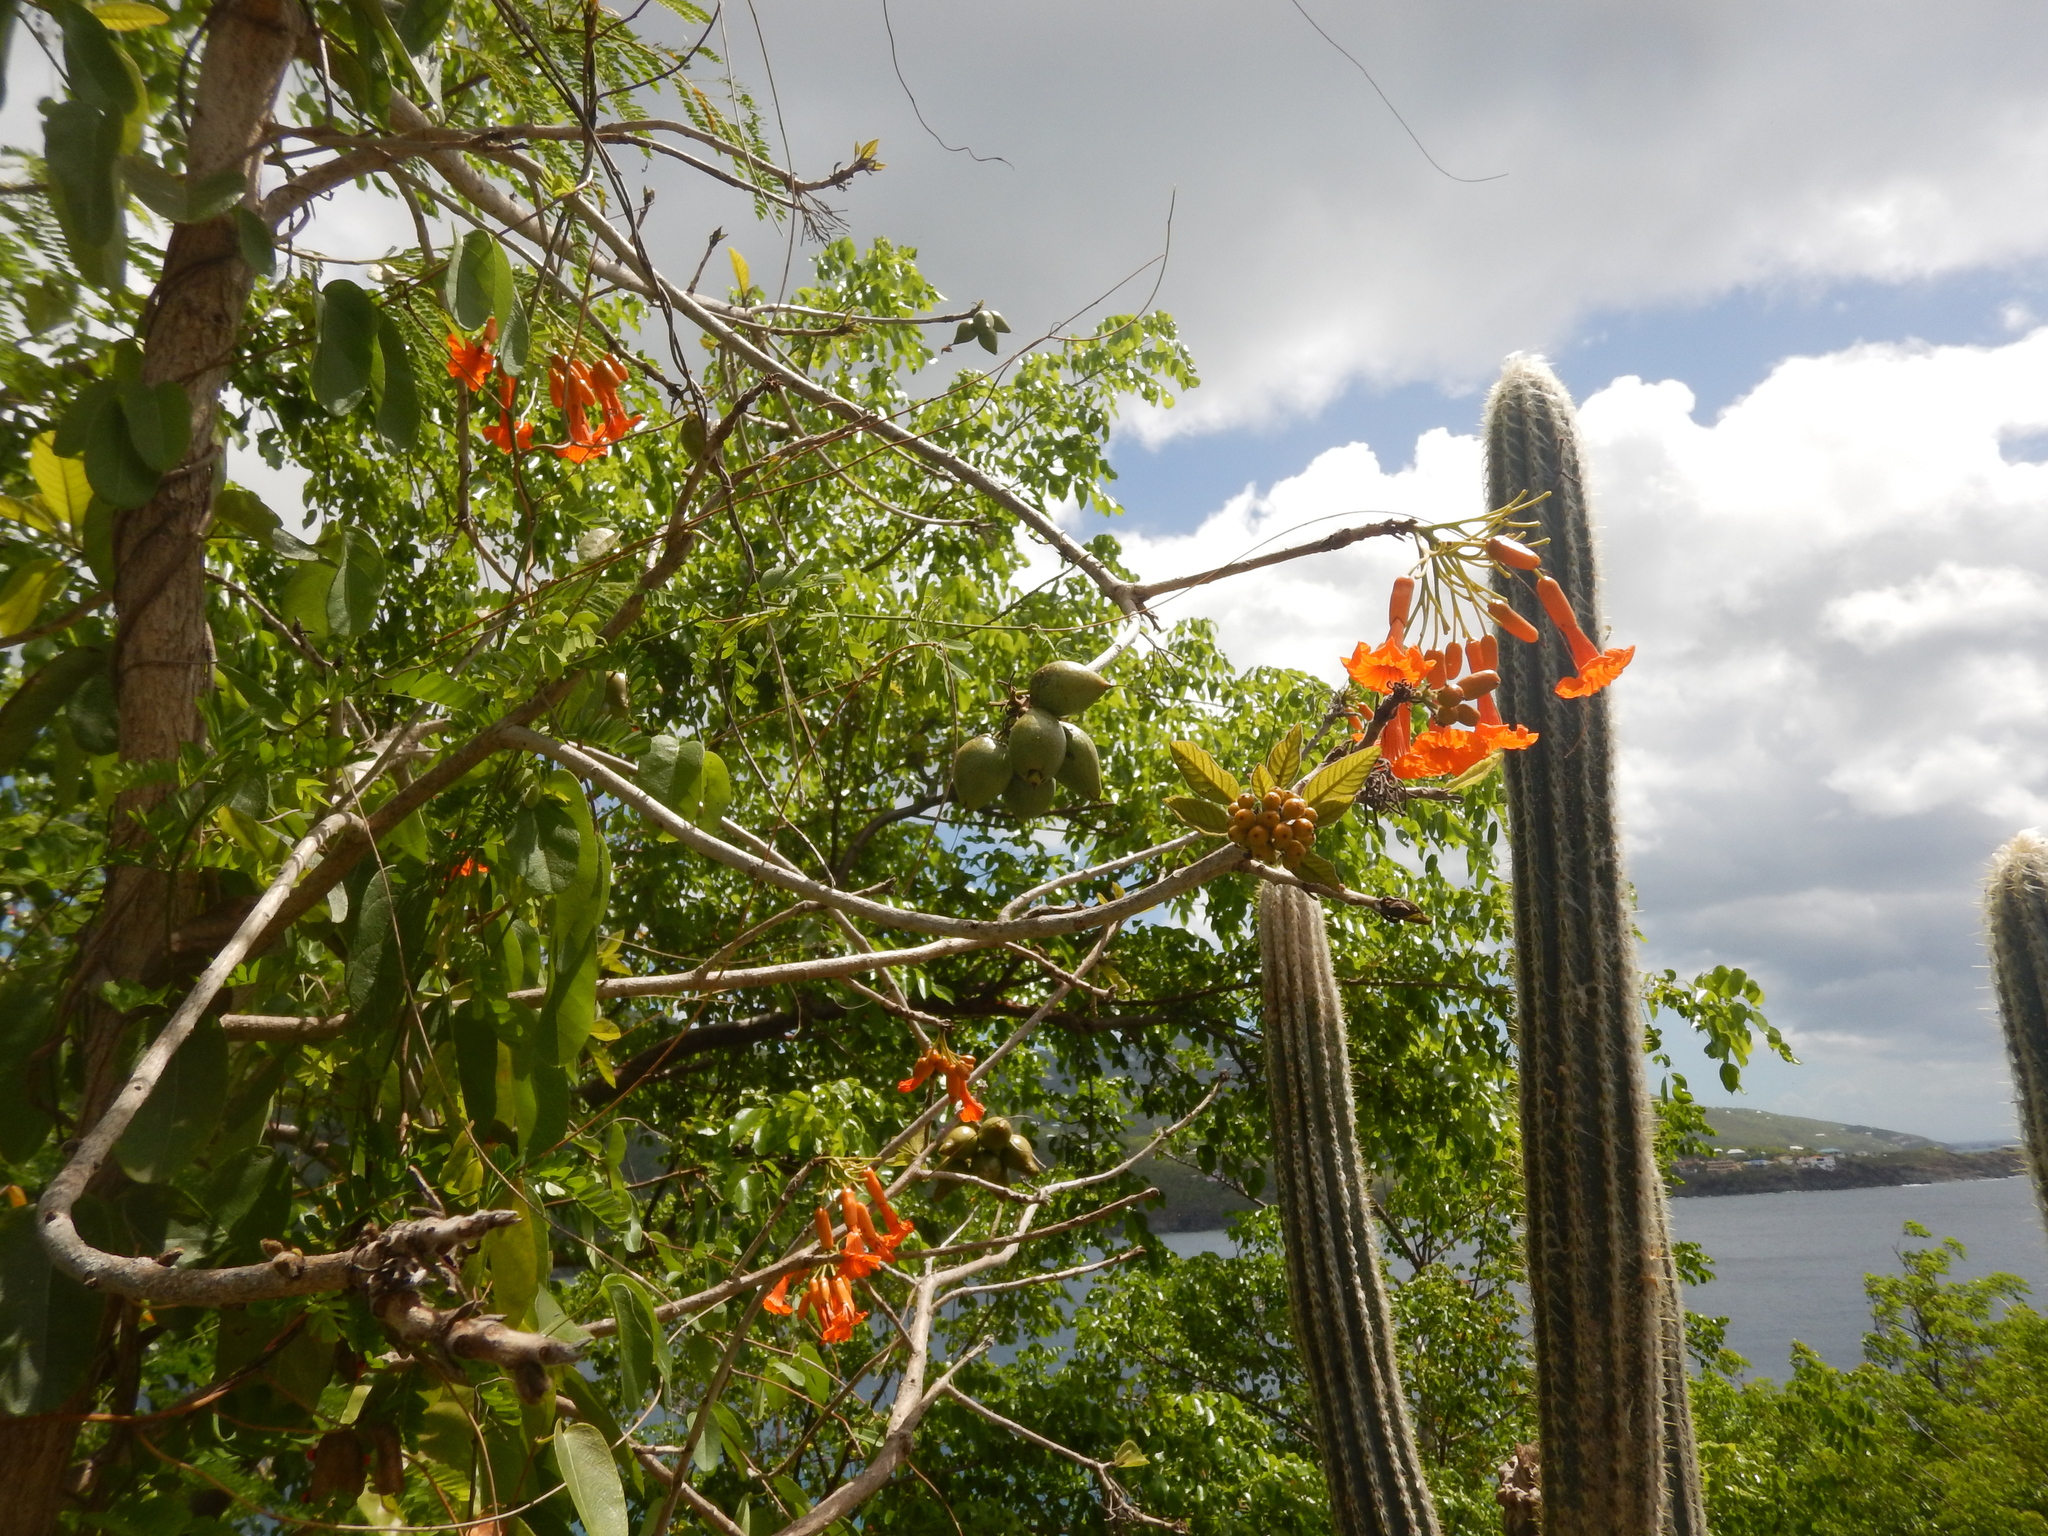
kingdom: Plantae
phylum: Tracheophyta
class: Magnoliopsida
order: Boraginales
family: Cordiaceae
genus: Cordia
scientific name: Cordia rickseckeri
